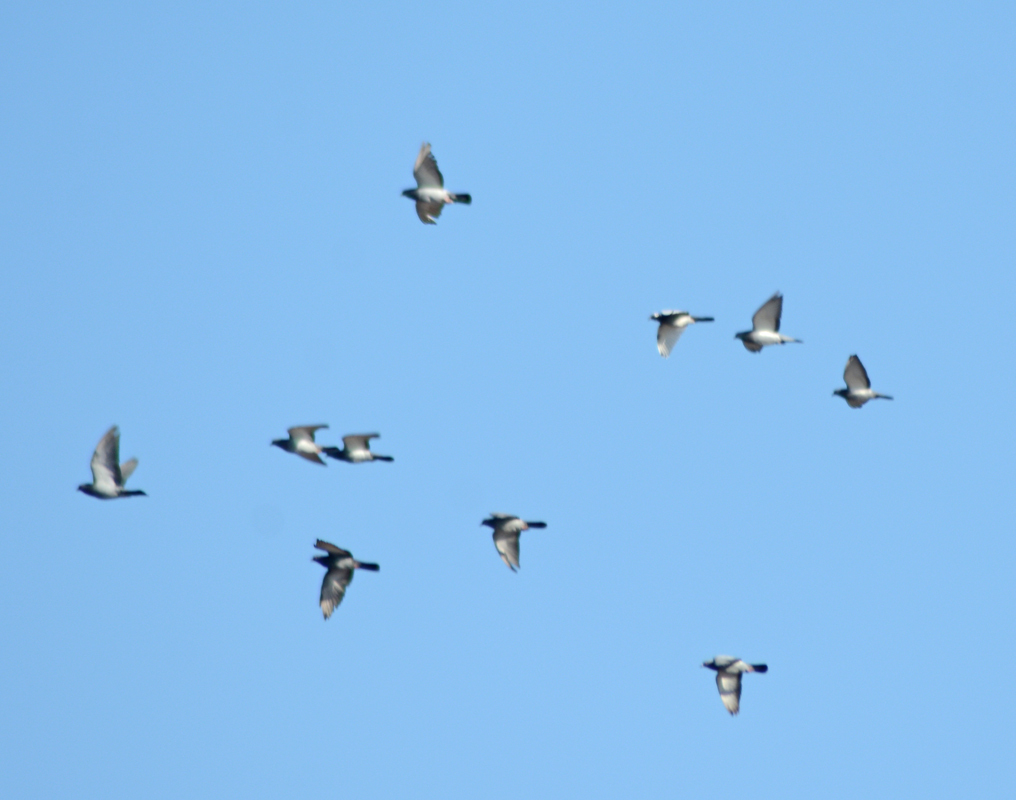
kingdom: Animalia
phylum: Chordata
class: Aves
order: Columbiformes
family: Columbidae
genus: Columba
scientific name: Columba livia
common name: Rock pigeon
